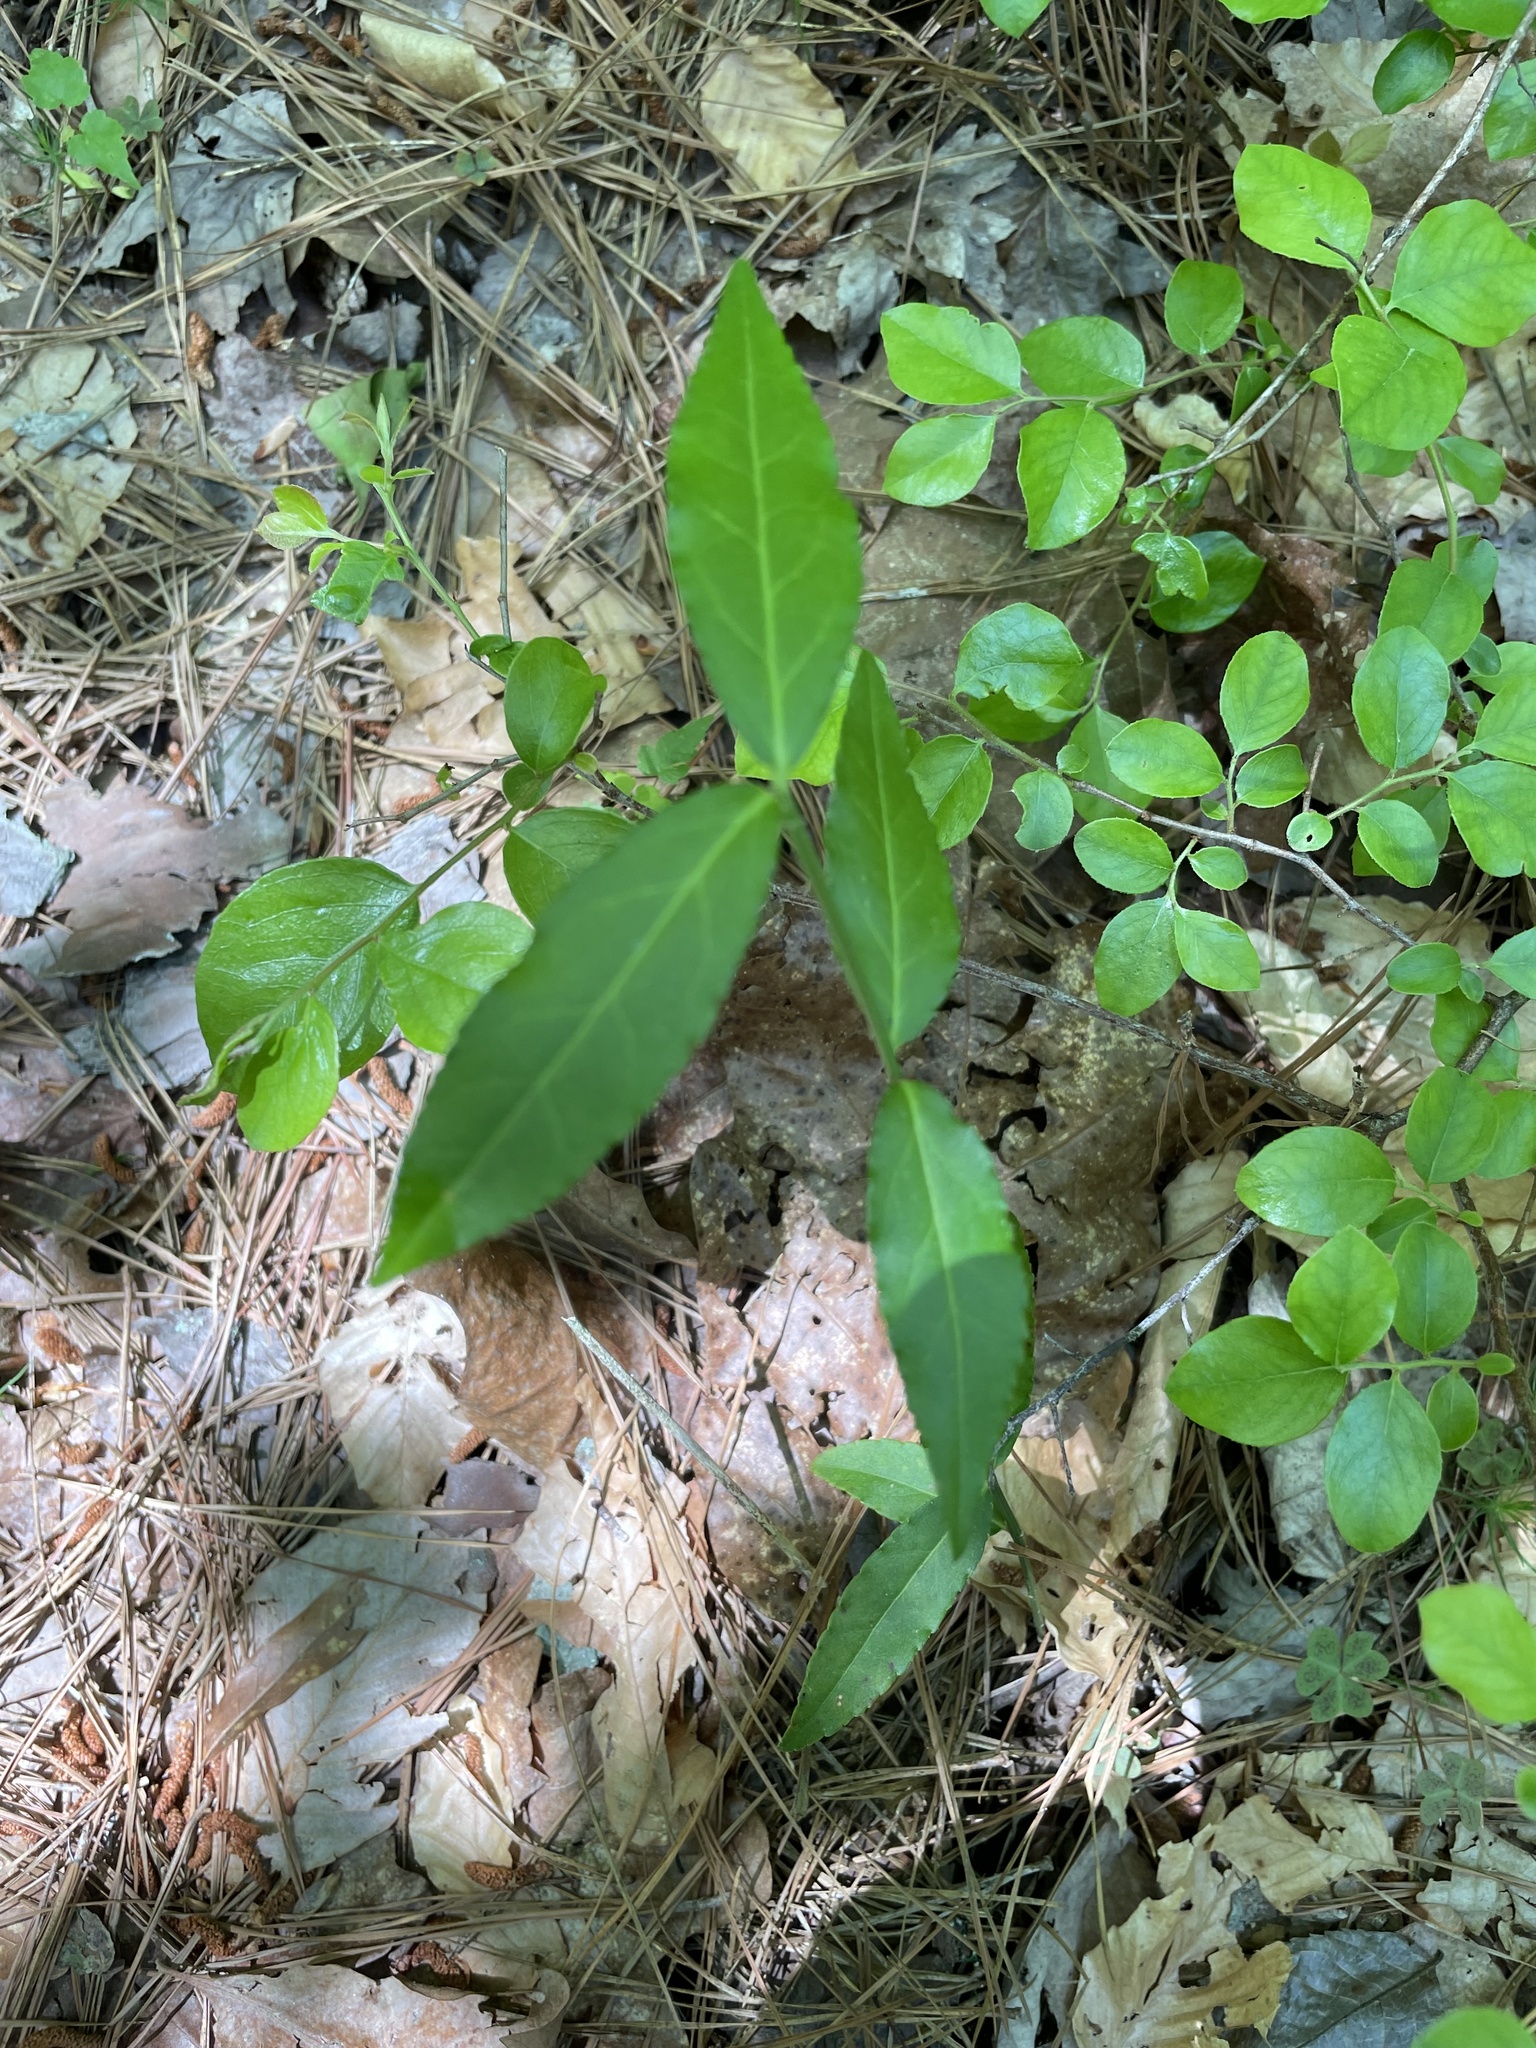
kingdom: Plantae
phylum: Tracheophyta
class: Magnoliopsida
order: Celastrales
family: Celastraceae
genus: Euonymus
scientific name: Euonymus americanus
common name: Bursting-heart
